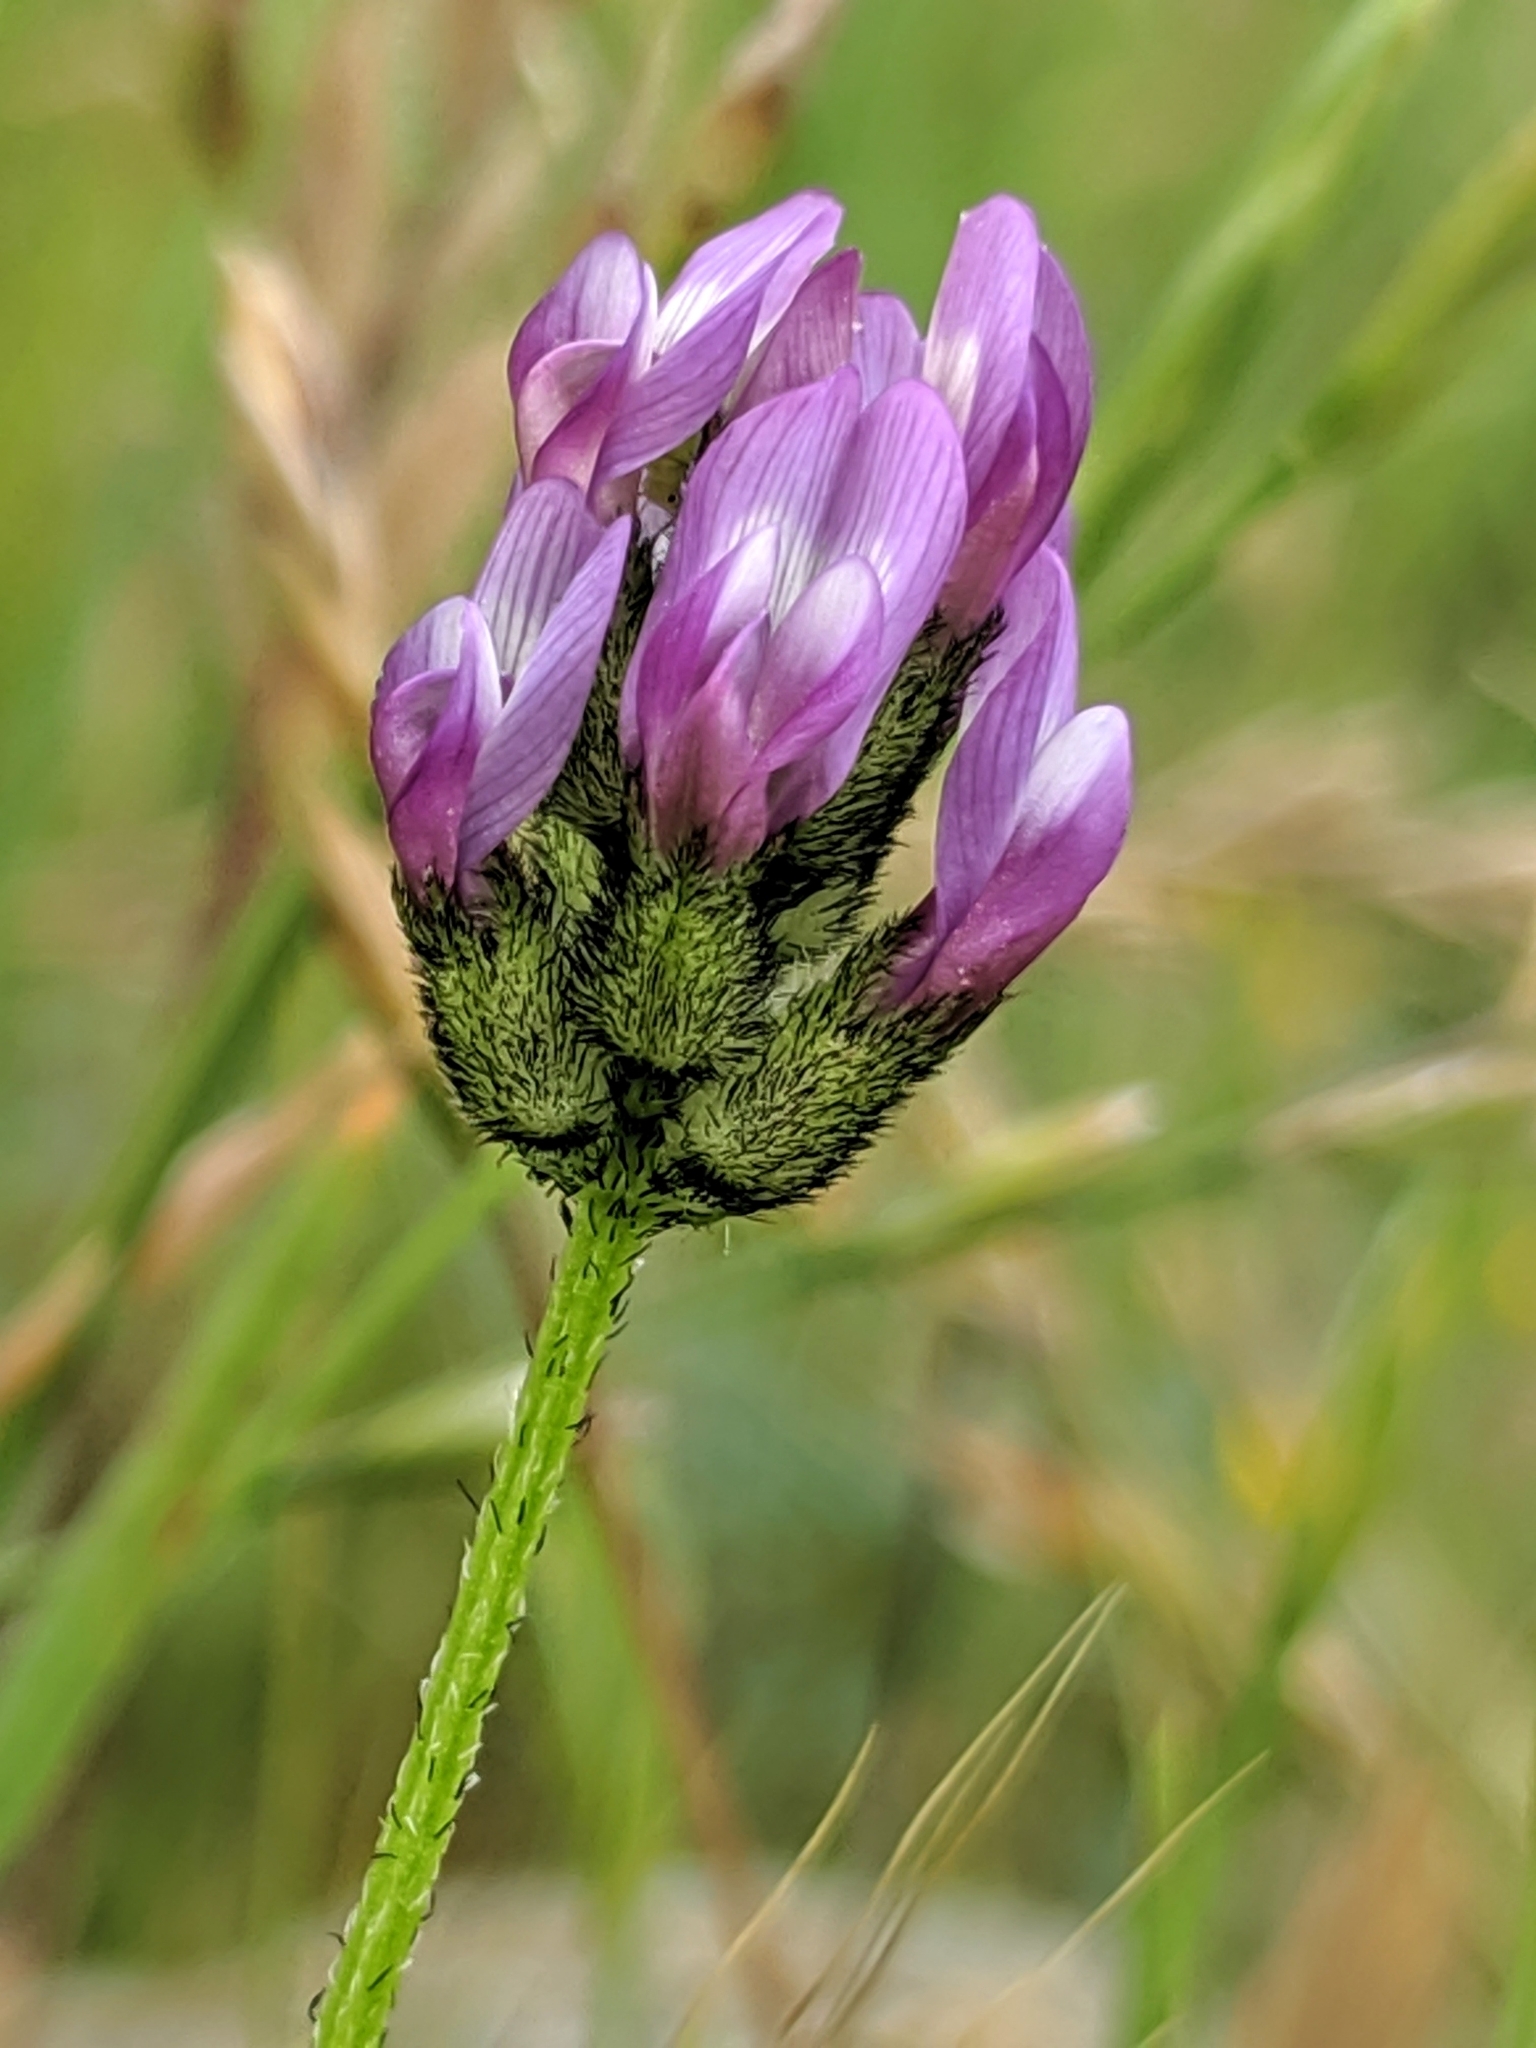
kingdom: Plantae
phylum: Tracheophyta
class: Magnoliopsida
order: Fabales
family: Fabaceae
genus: Astragalus
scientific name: Astragalus didymocarpus
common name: Dwarf white milkvetch
